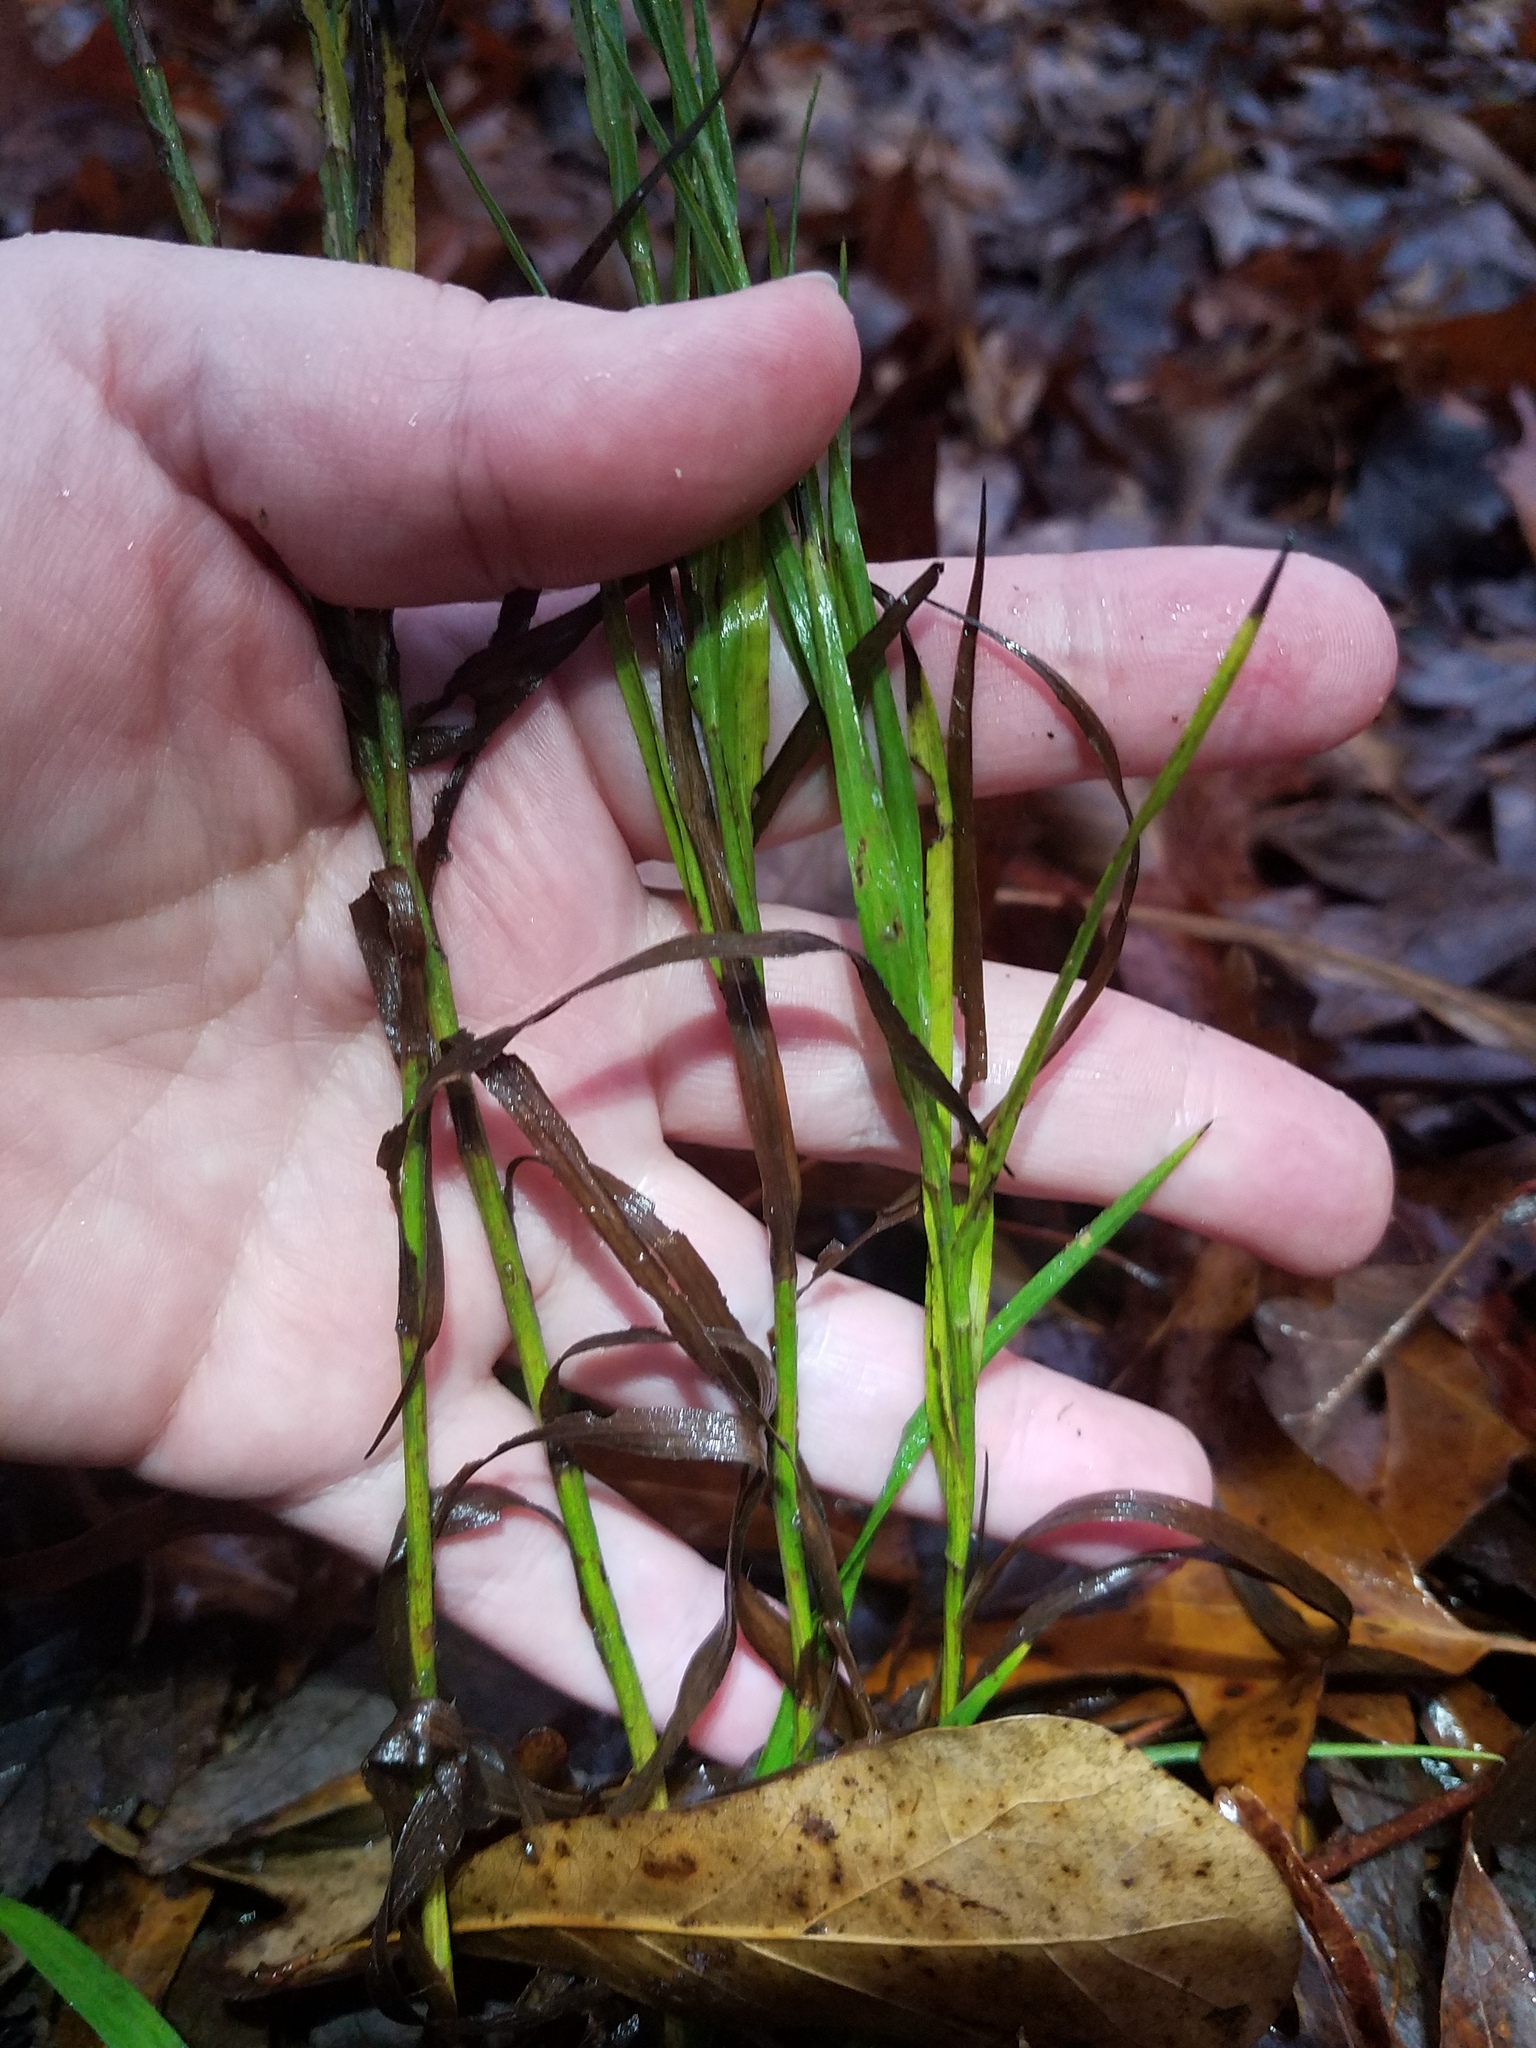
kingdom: Plantae
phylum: Tracheophyta
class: Magnoliopsida
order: Asterales
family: Asteraceae
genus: Pityopsis
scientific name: Pityopsis aspera
